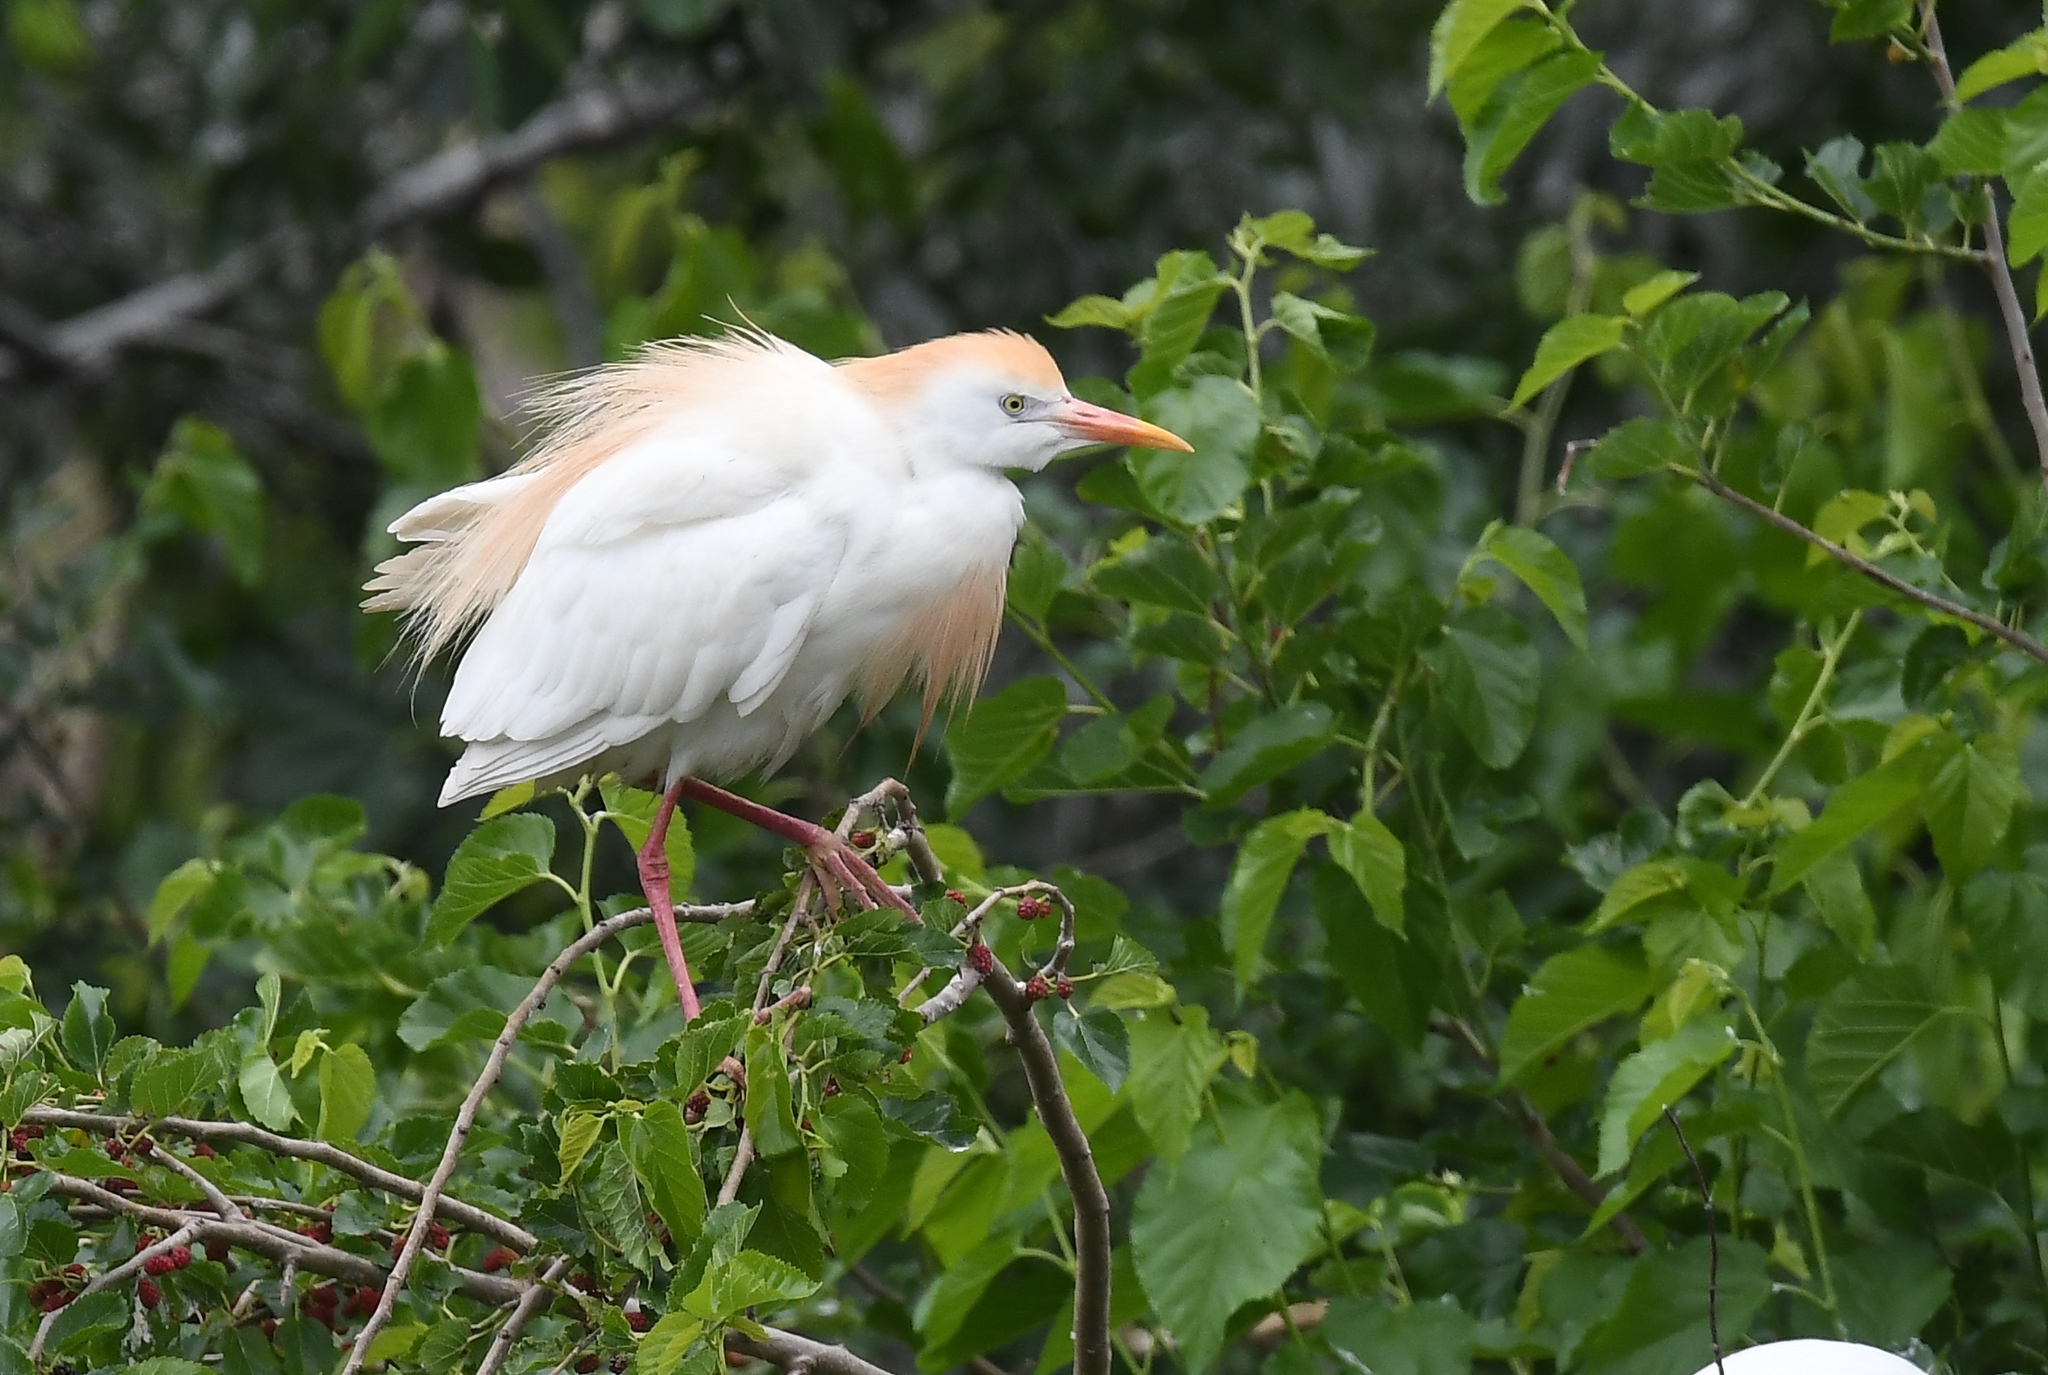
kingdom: Animalia
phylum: Chordata
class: Aves
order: Pelecaniformes
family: Ardeidae
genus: Bubulcus
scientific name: Bubulcus ibis
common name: Cattle egret
